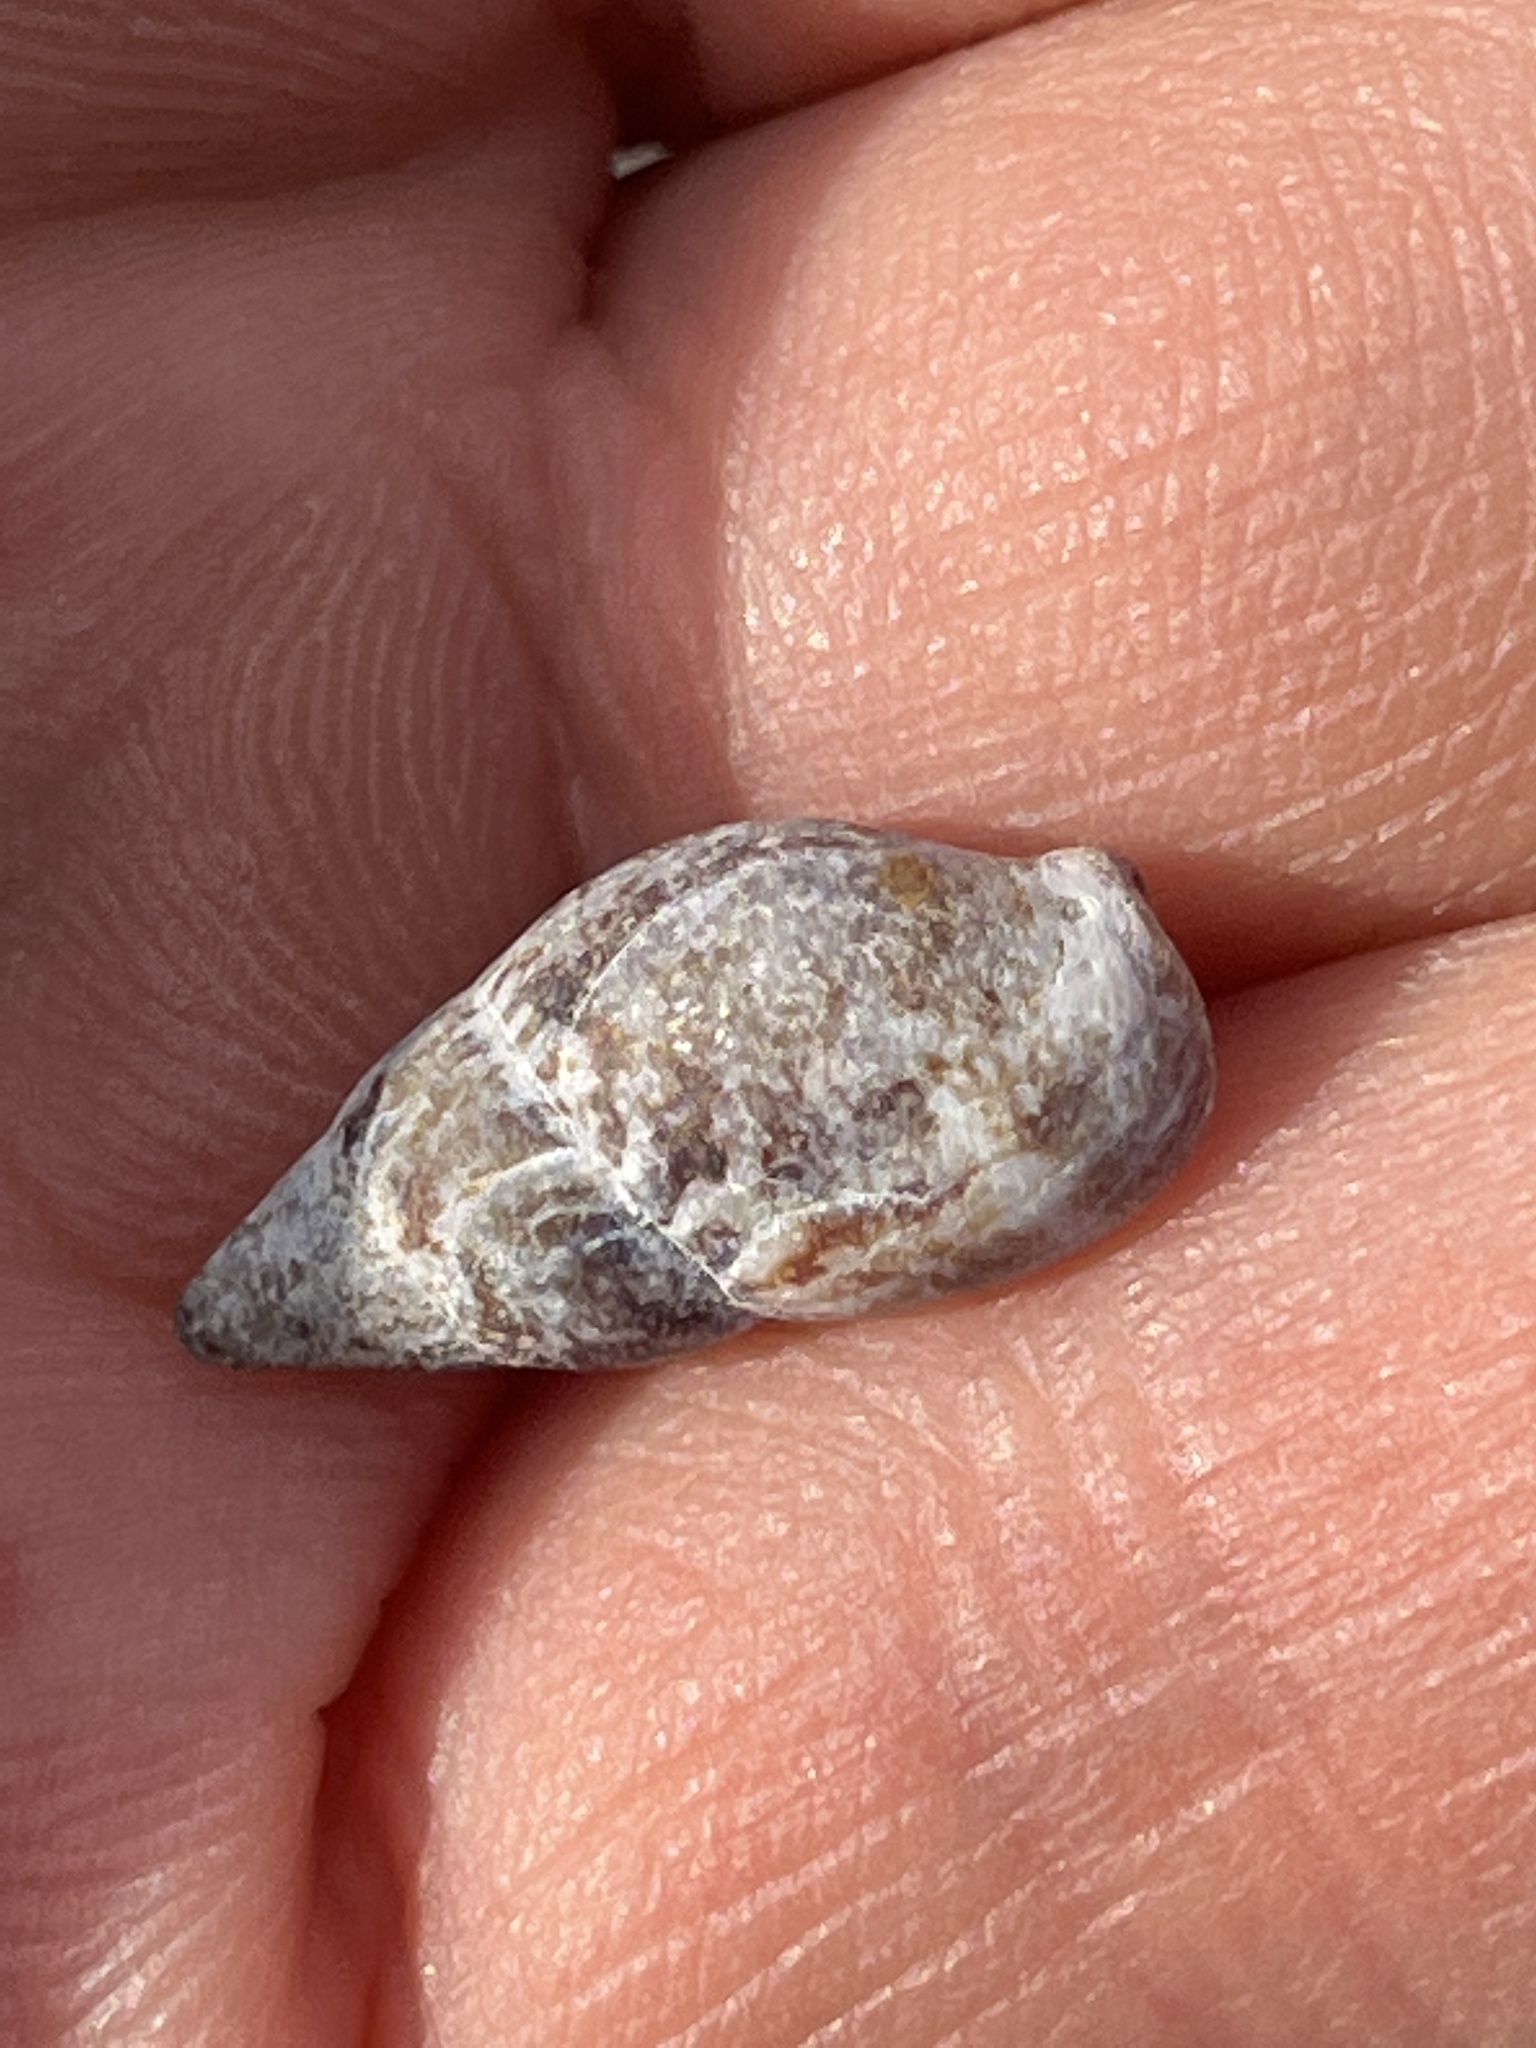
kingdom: Animalia
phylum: Mollusca
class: Gastropoda
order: Neogastropoda
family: Columbellidae
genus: Mitrella
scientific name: Mitrella burchardti
